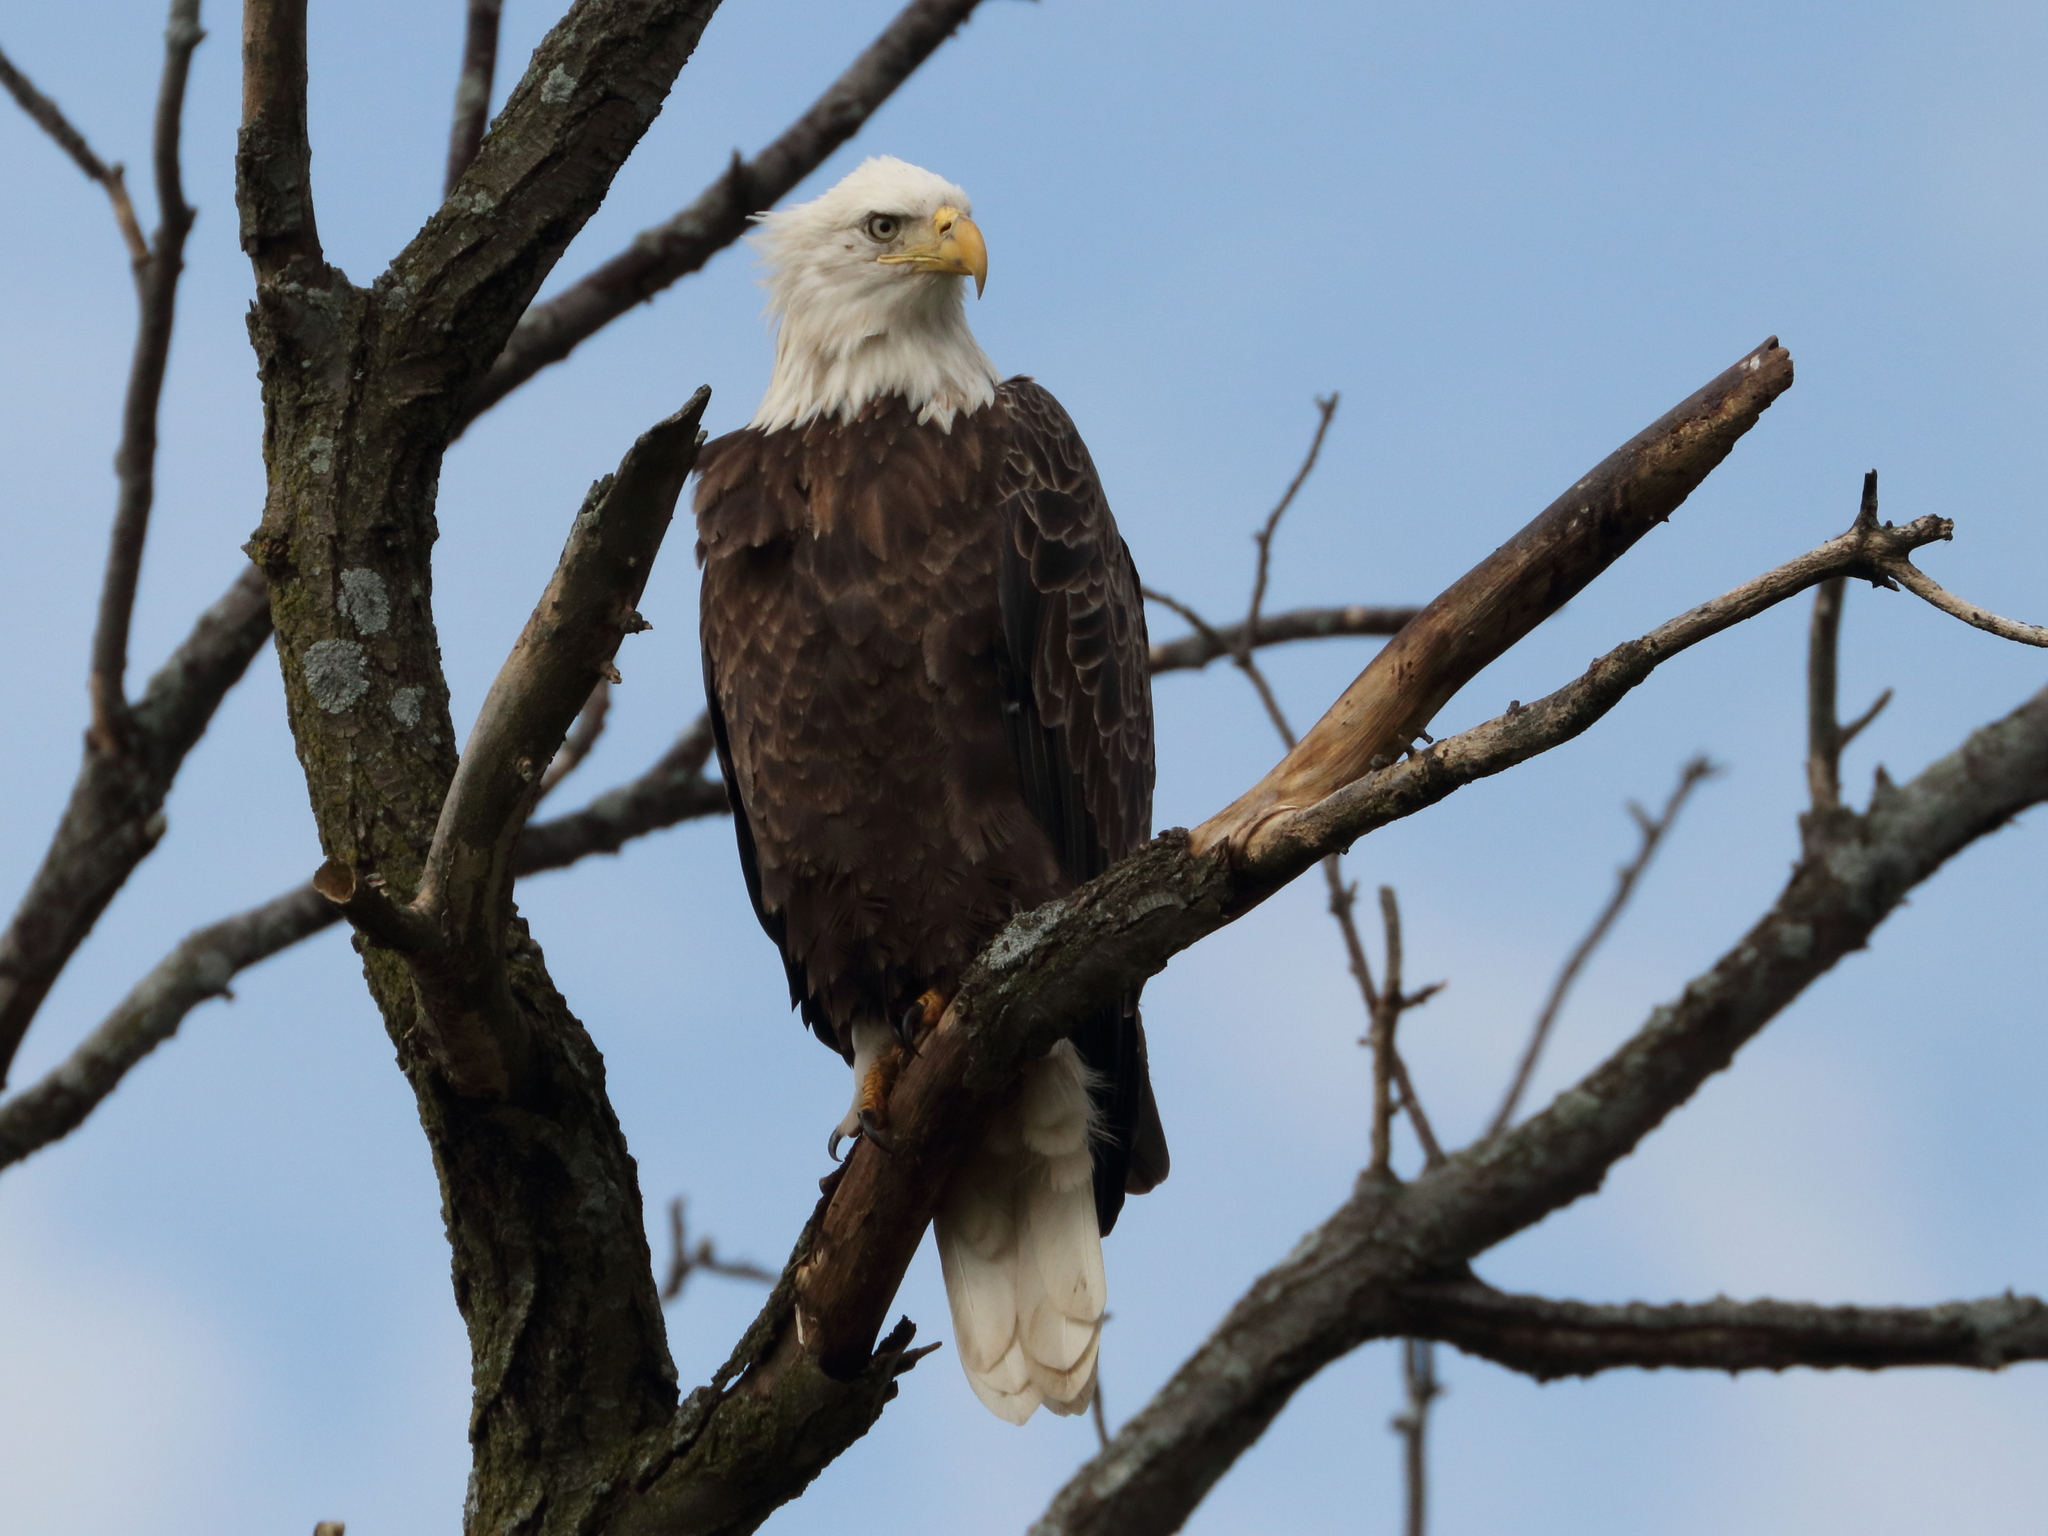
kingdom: Animalia
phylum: Chordata
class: Aves
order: Accipitriformes
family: Accipitridae
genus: Haliaeetus
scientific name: Haliaeetus leucocephalus
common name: Bald eagle
